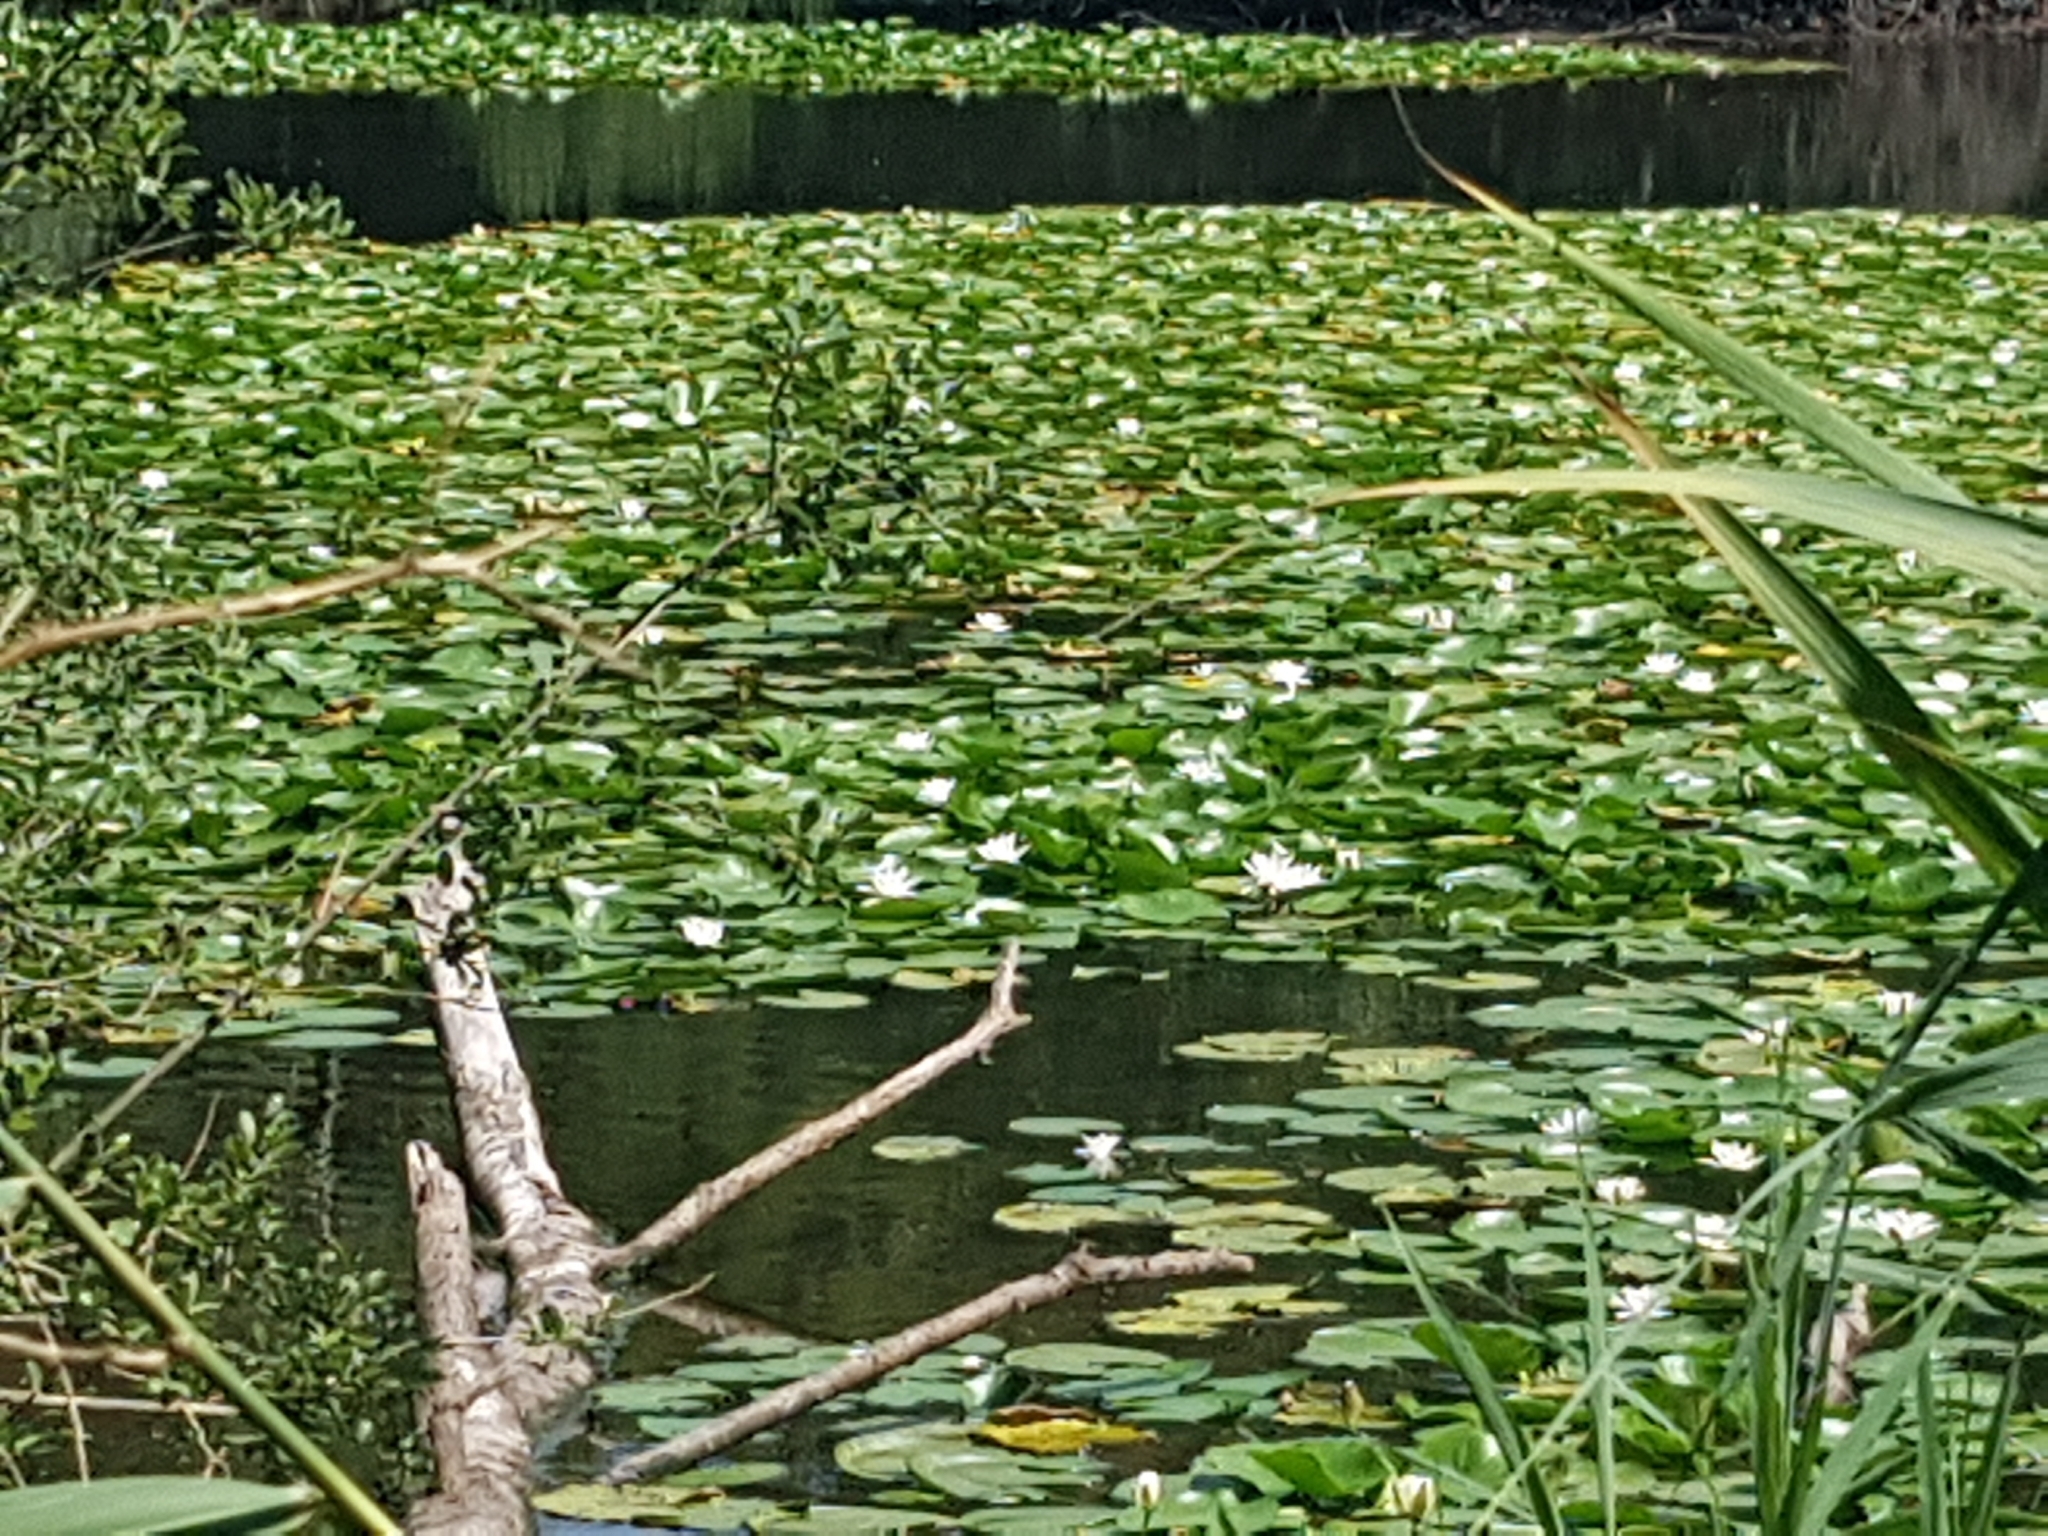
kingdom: Plantae
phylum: Tracheophyta
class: Magnoliopsida
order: Nymphaeales
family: Nymphaeaceae
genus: Nymphaea
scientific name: Nymphaea alba
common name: White water-lily
